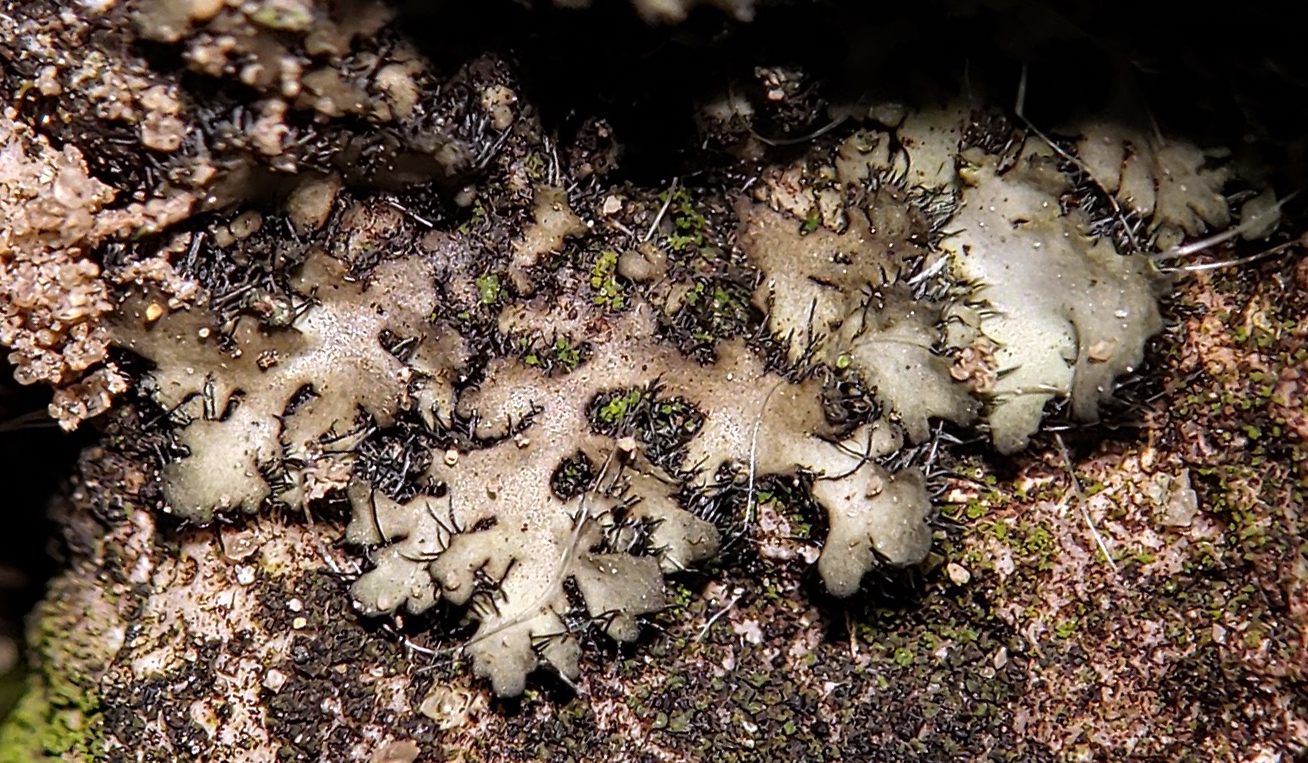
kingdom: Fungi
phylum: Ascomycota
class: Lecanoromycetes
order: Caliciales
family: Physciaceae
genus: Phaeophyscia
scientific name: Phaeophyscia hispidula
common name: Whiskered shadow lichen
